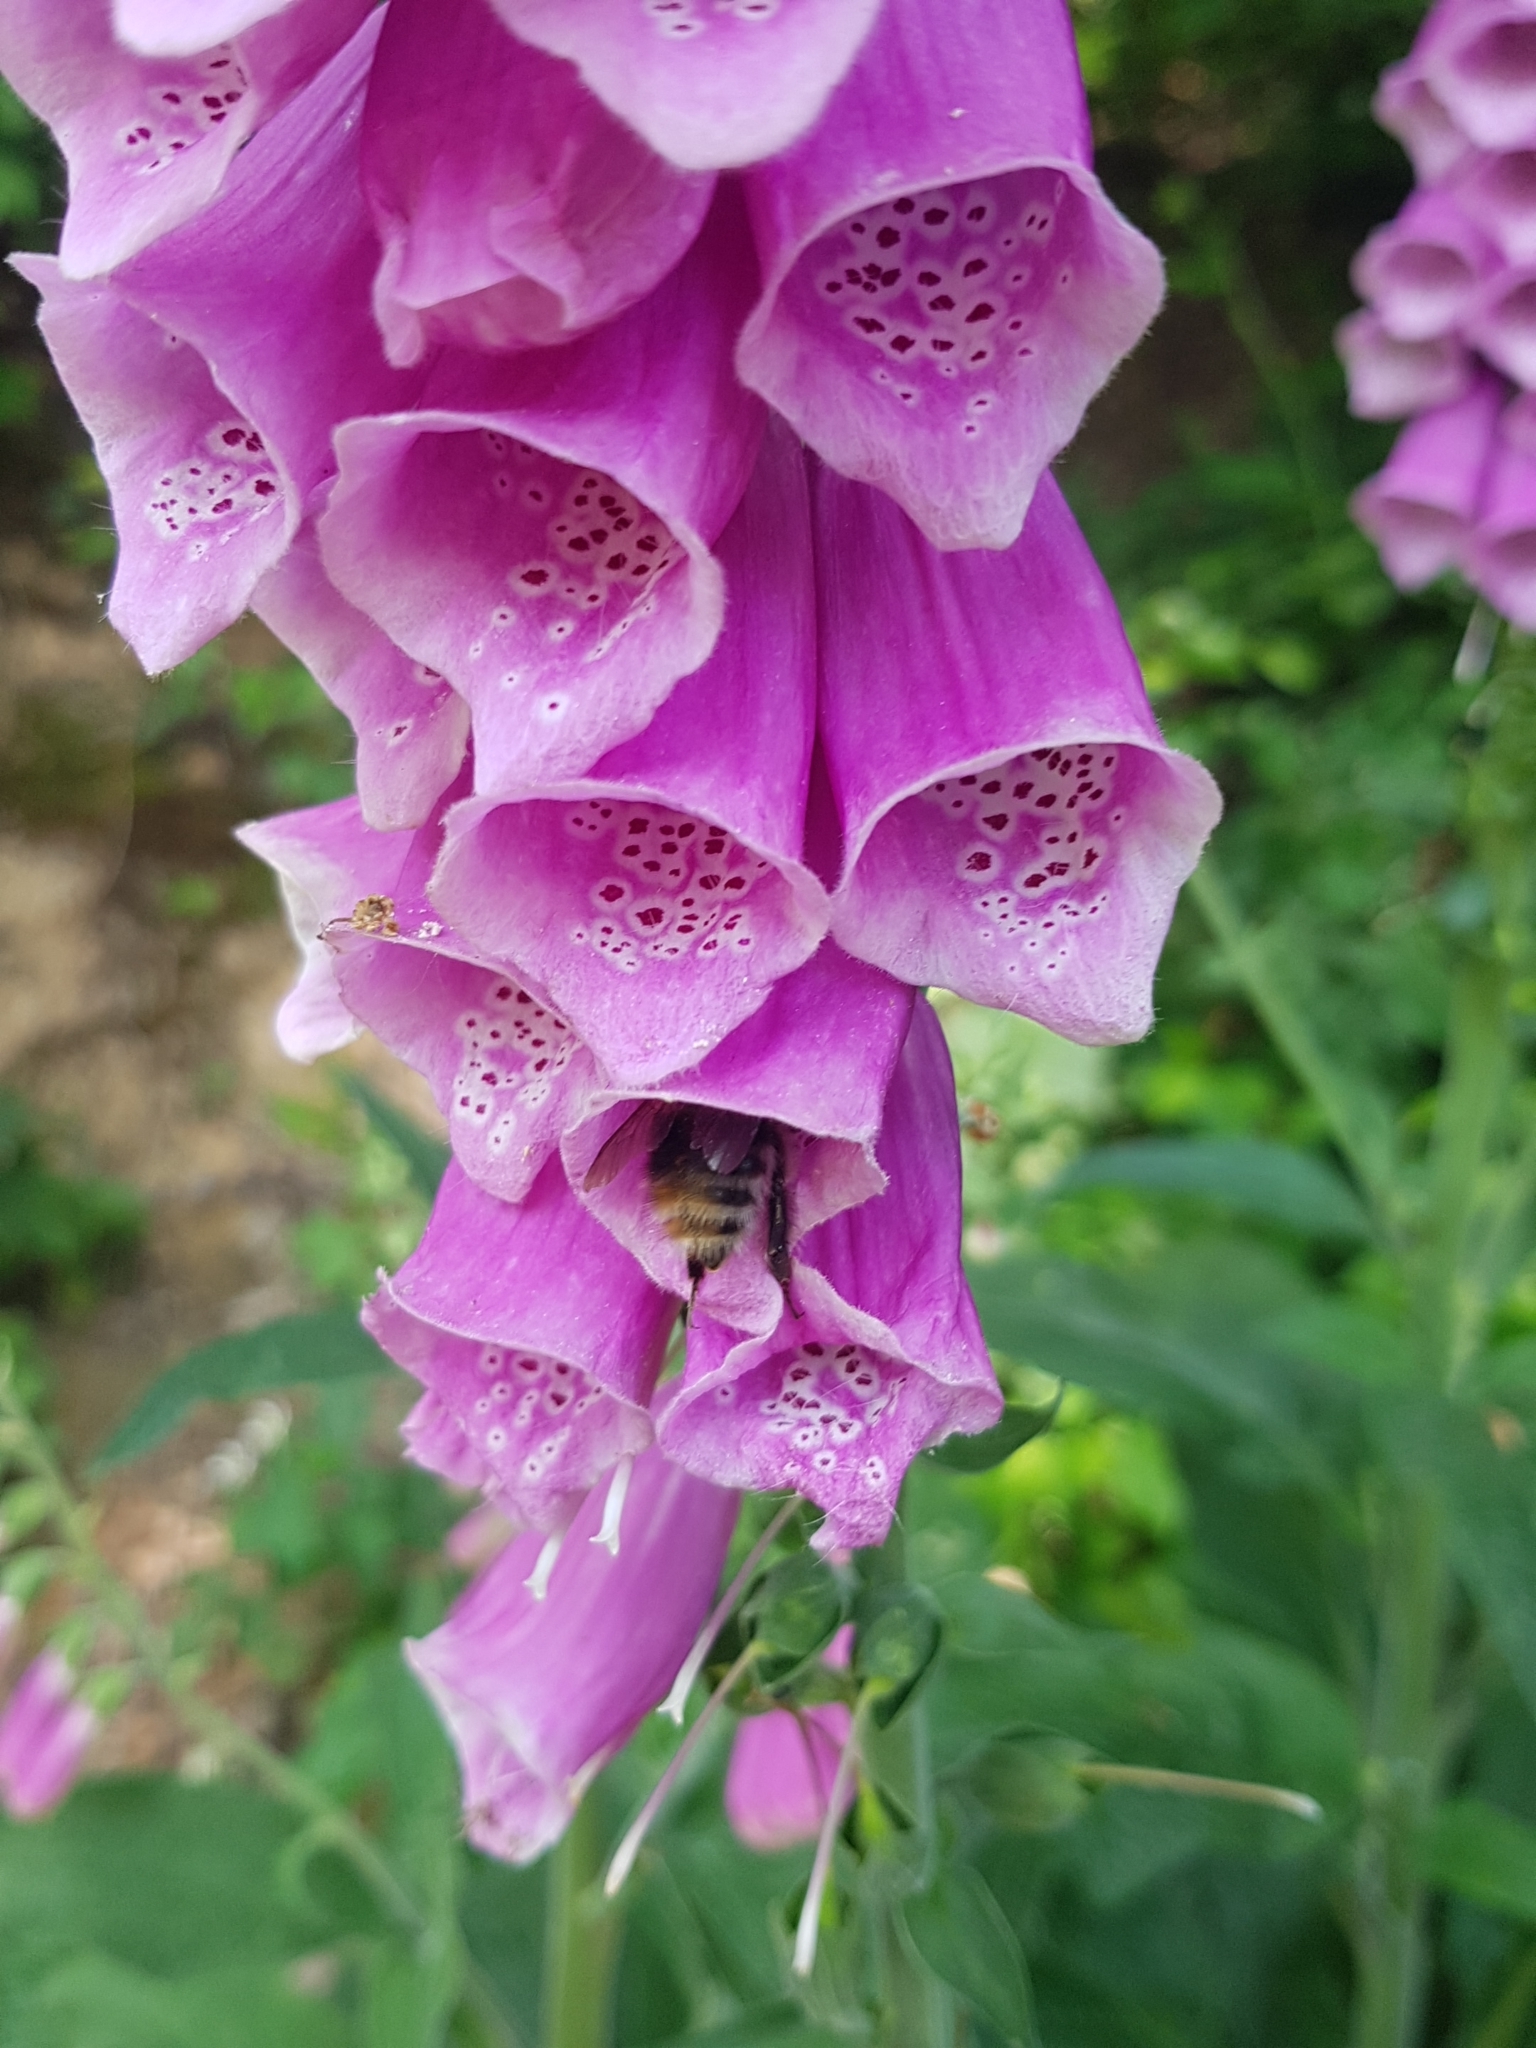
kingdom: Plantae
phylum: Tracheophyta
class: Magnoliopsida
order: Lamiales
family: Plantaginaceae
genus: Digitalis
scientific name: Digitalis purpurea
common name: Foxglove
